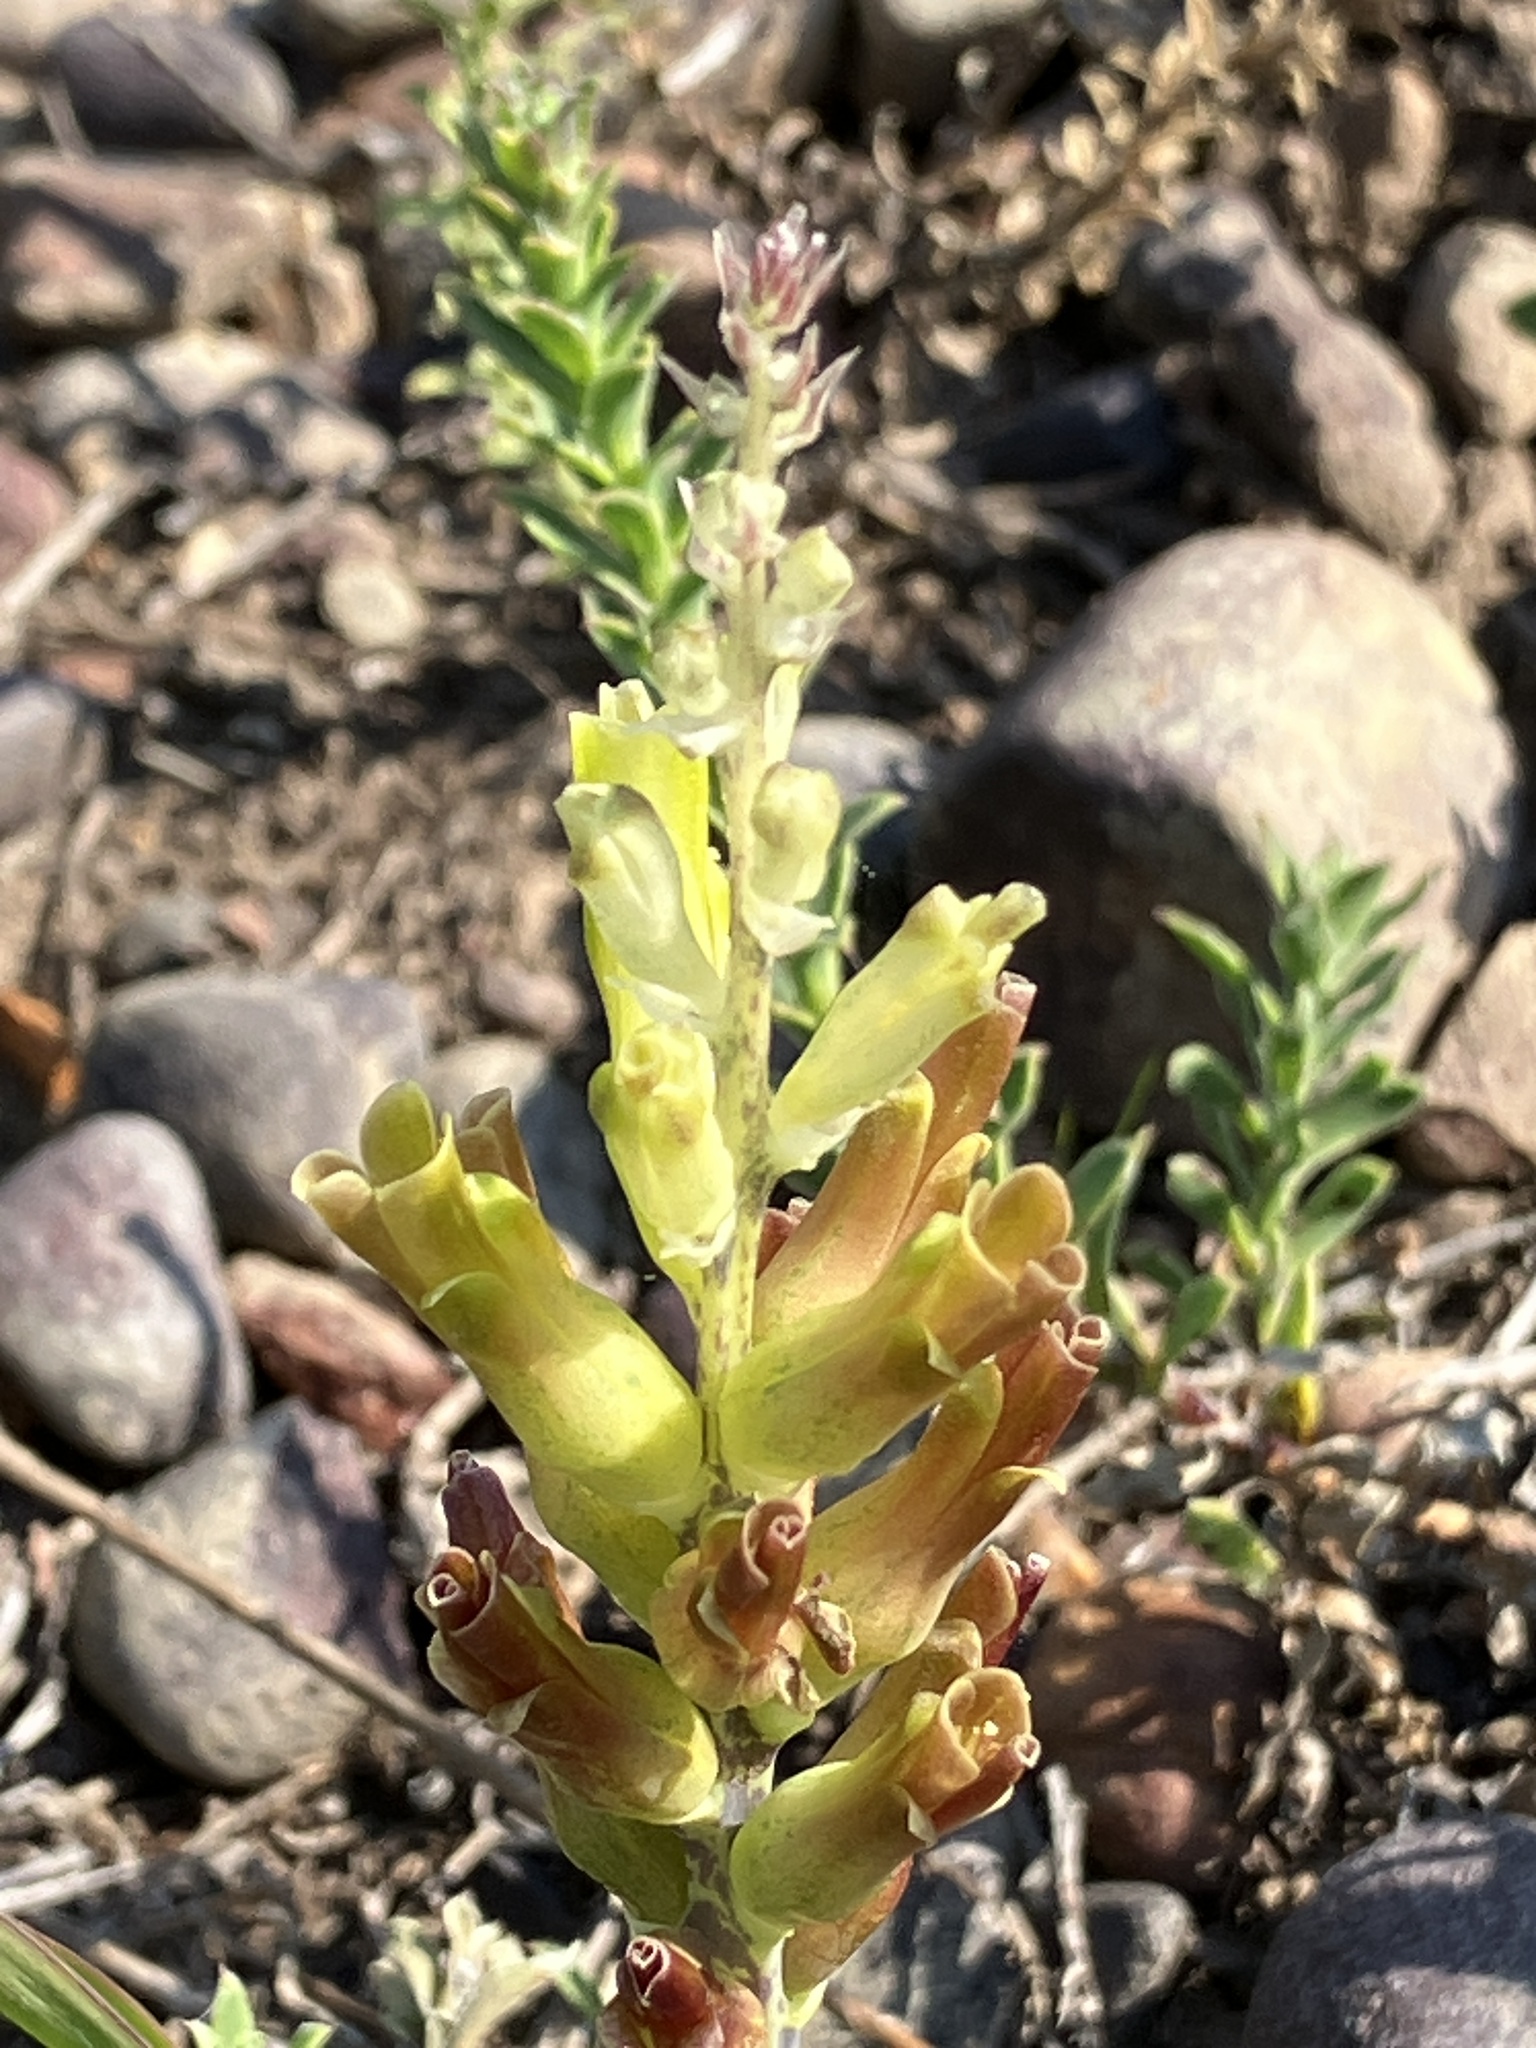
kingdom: Plantae
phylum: Tracheophyta
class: Liliopsida
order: Asparagales
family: Asparagaceae
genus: Lachenalia
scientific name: Lachenalia orchioides
